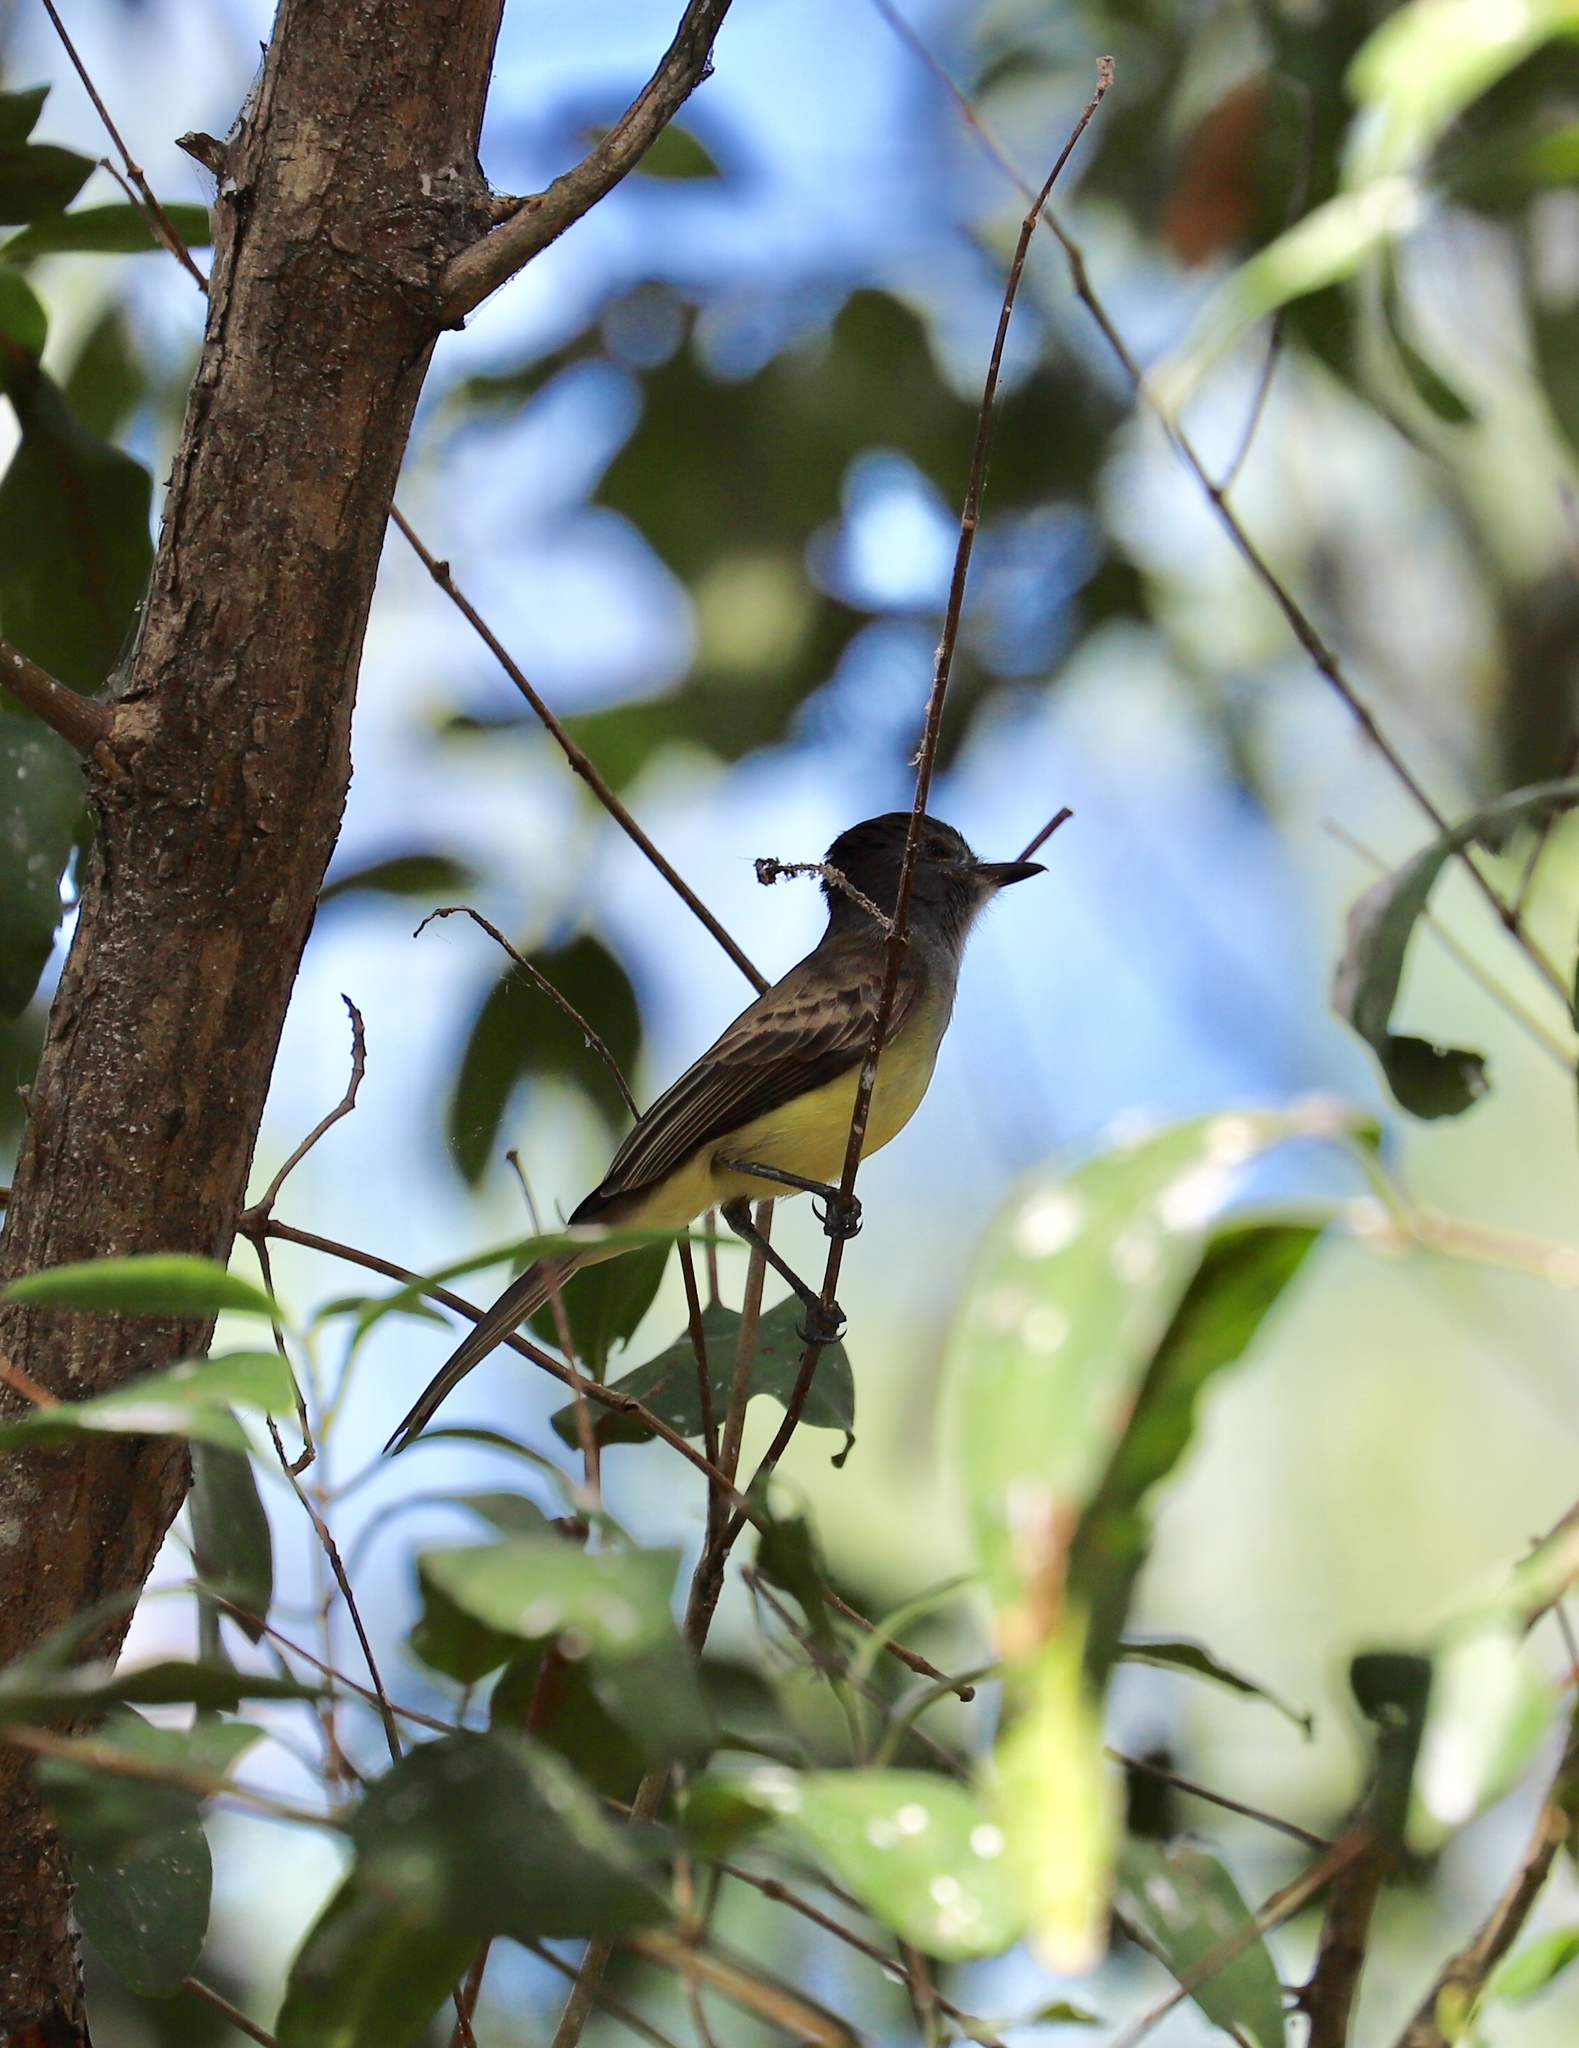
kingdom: Animalia
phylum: Chordata
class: Aves
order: Passeriformes
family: Tyrannidae
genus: Myiarchus
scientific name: Myiarchus panamensis
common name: Panama flycatcher
